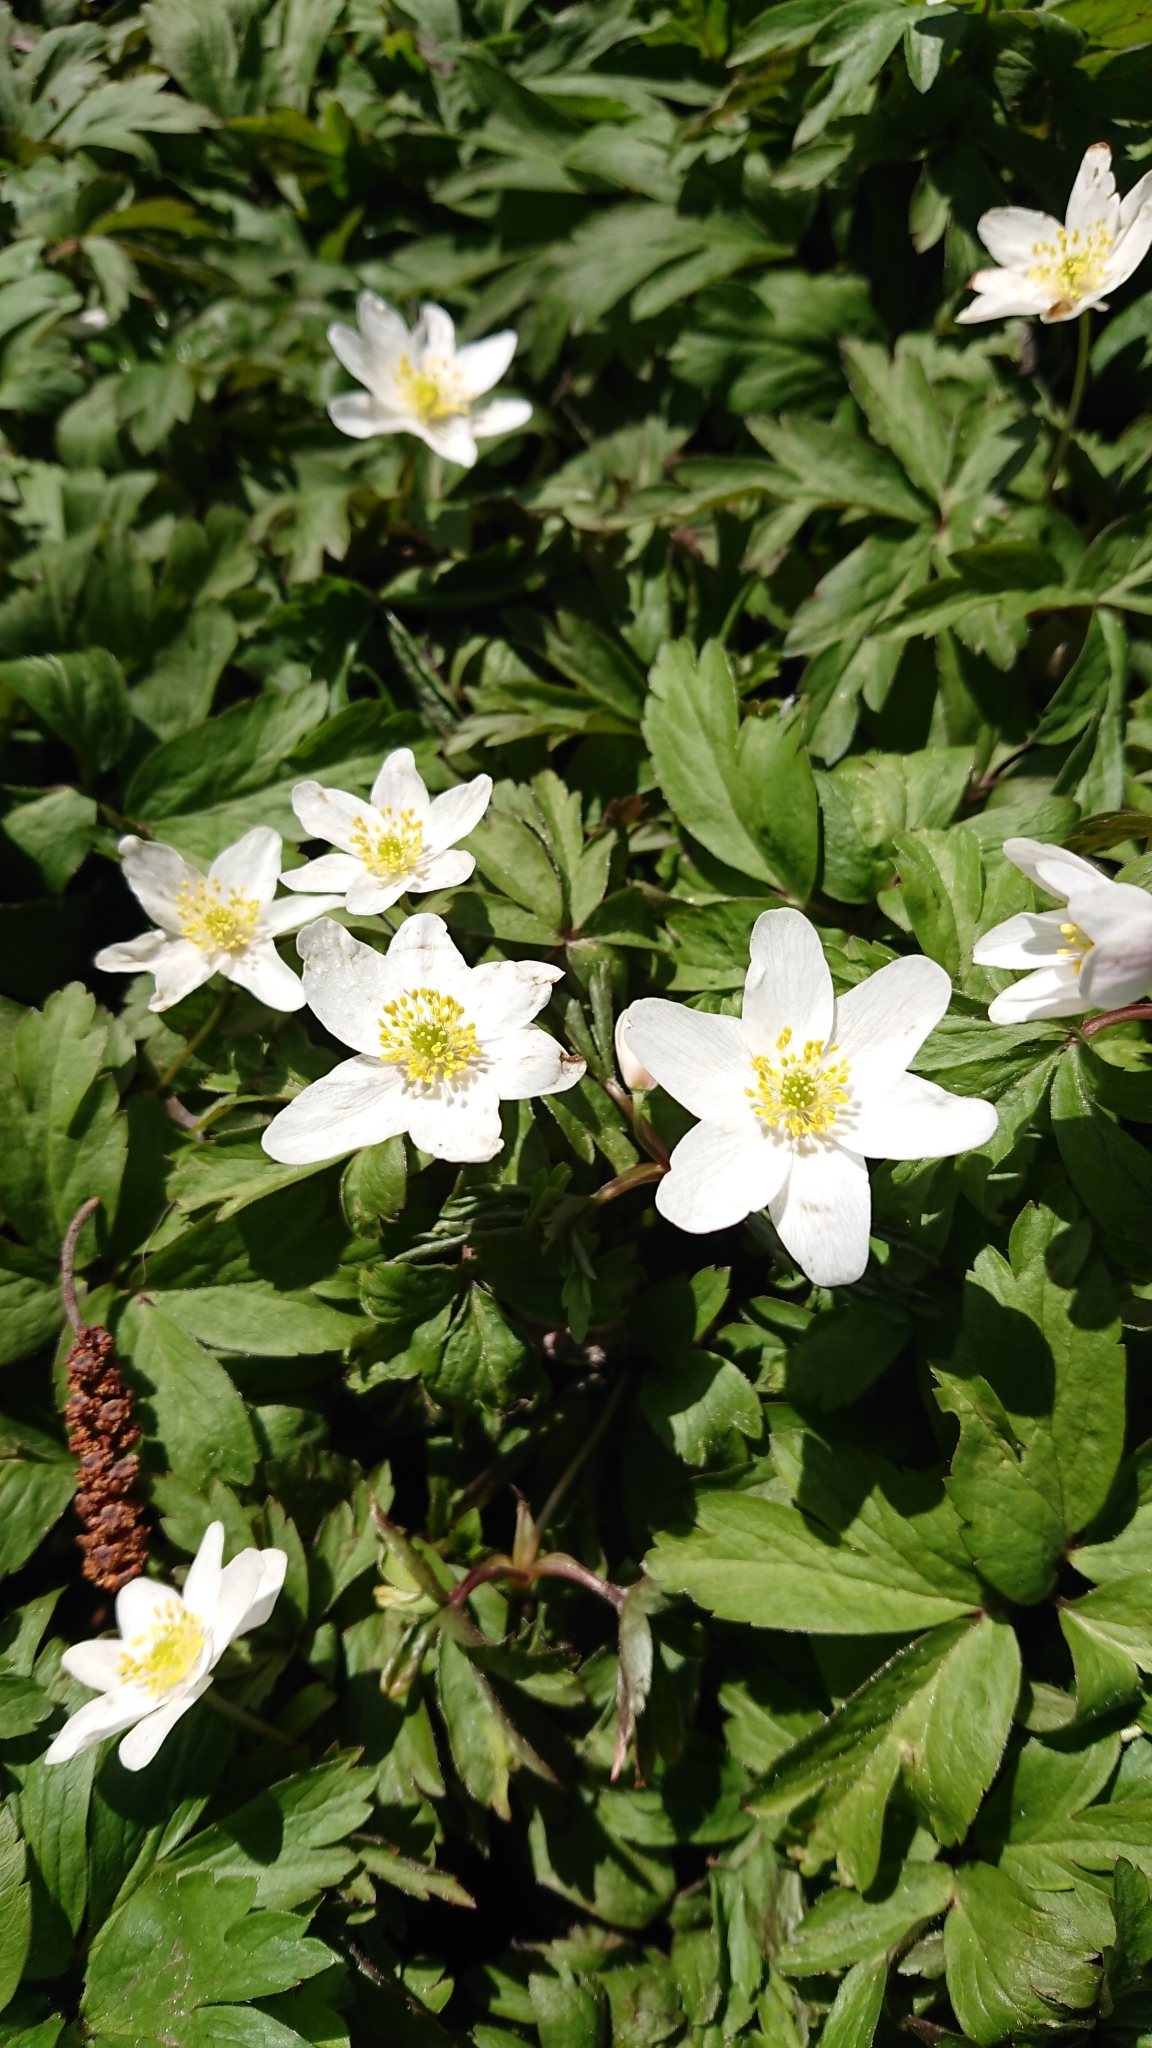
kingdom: Plantae
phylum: Tracheophyta
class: Magnoliopsida
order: Ranunculales
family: Ranunculaceae
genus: Anemone
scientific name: Anemone nemorosa
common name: Wood anemone
